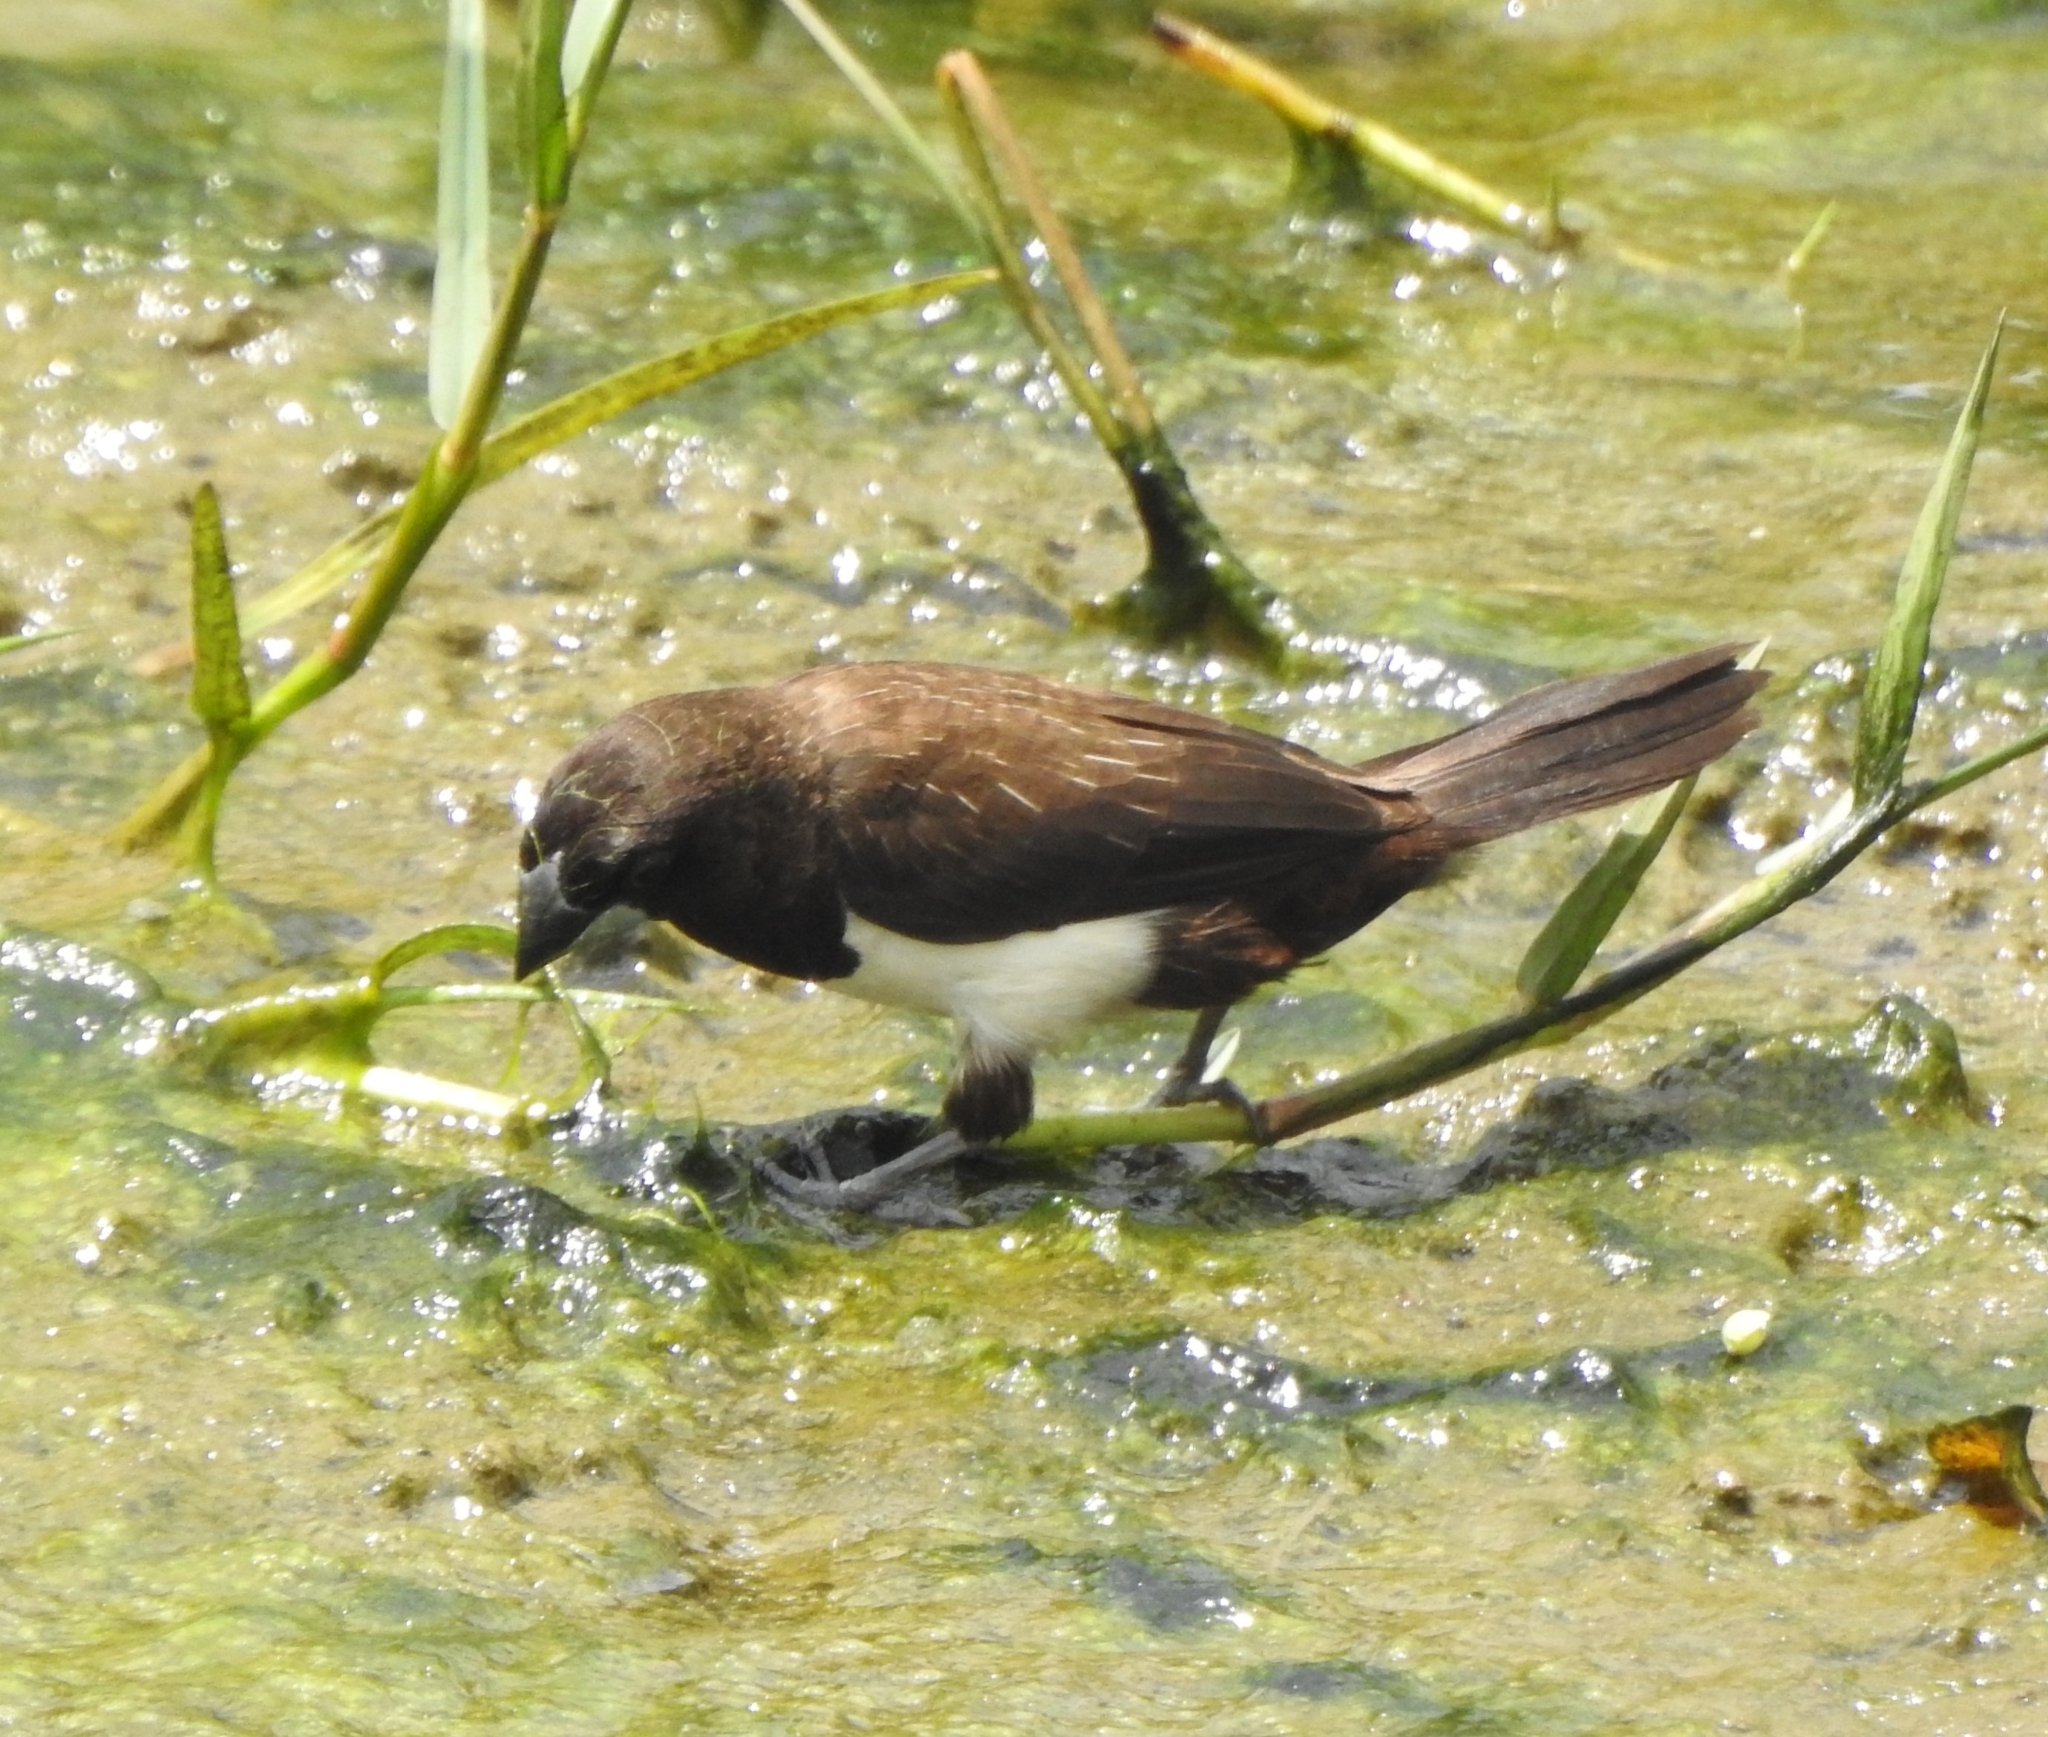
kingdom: Animalia
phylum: Chordata
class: Aves
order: Passeriformes
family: Estrildidae
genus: Lonchura
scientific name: Lonchura striata
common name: White-rumped munia
